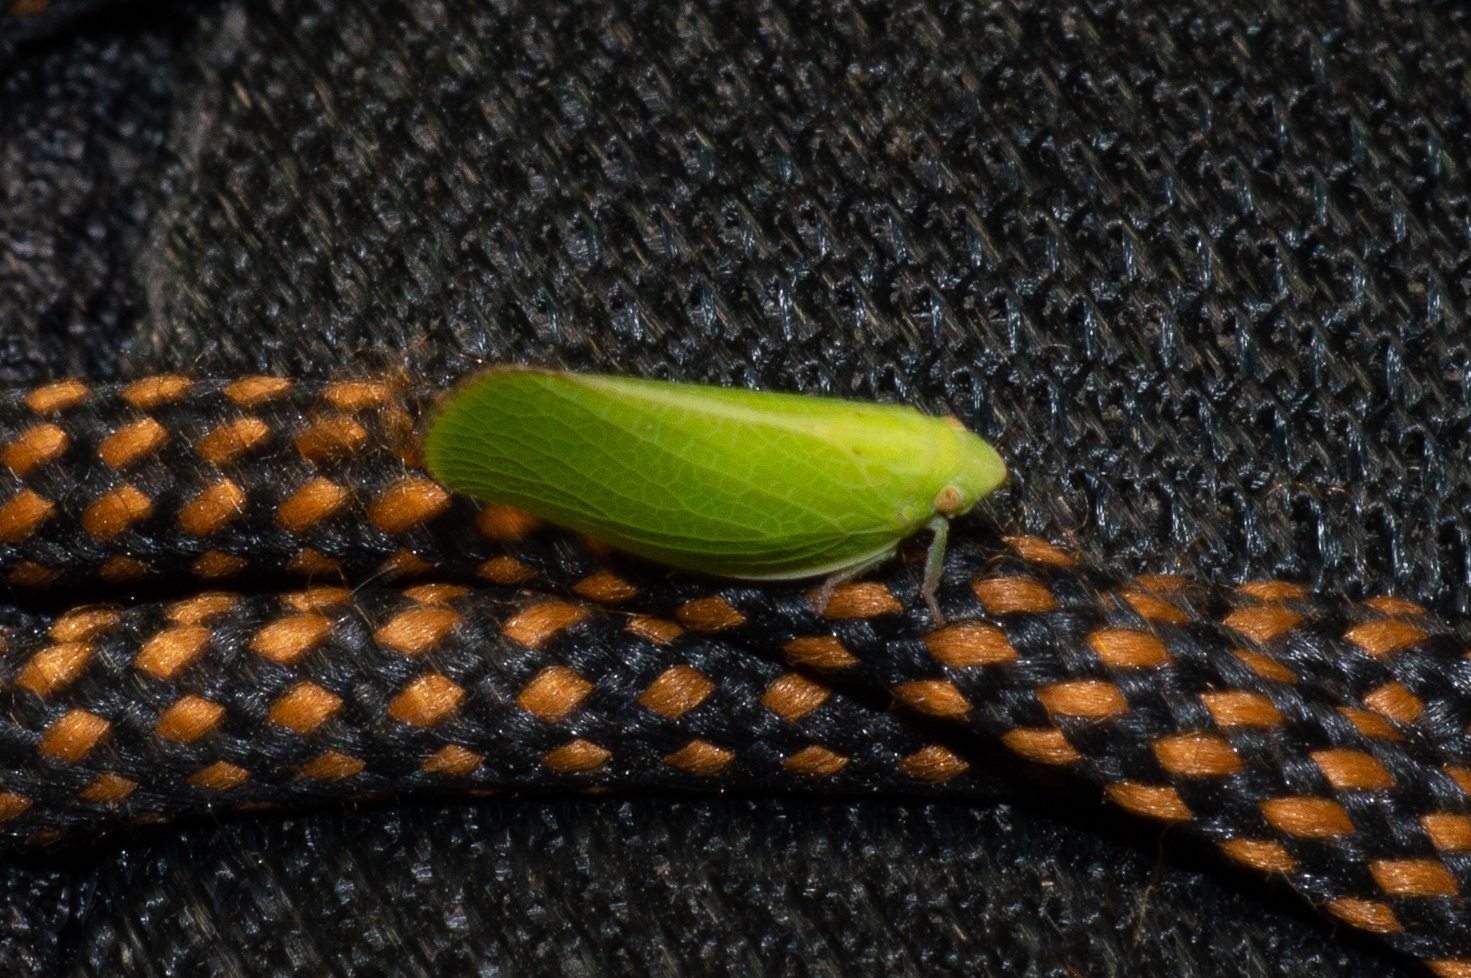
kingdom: Animalia
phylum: Arthropoda
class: Insecta
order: Hemiptera
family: Acanaloniidae
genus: Acanalonia
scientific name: Acanalonia conica
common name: Green cone-headed planthopper
